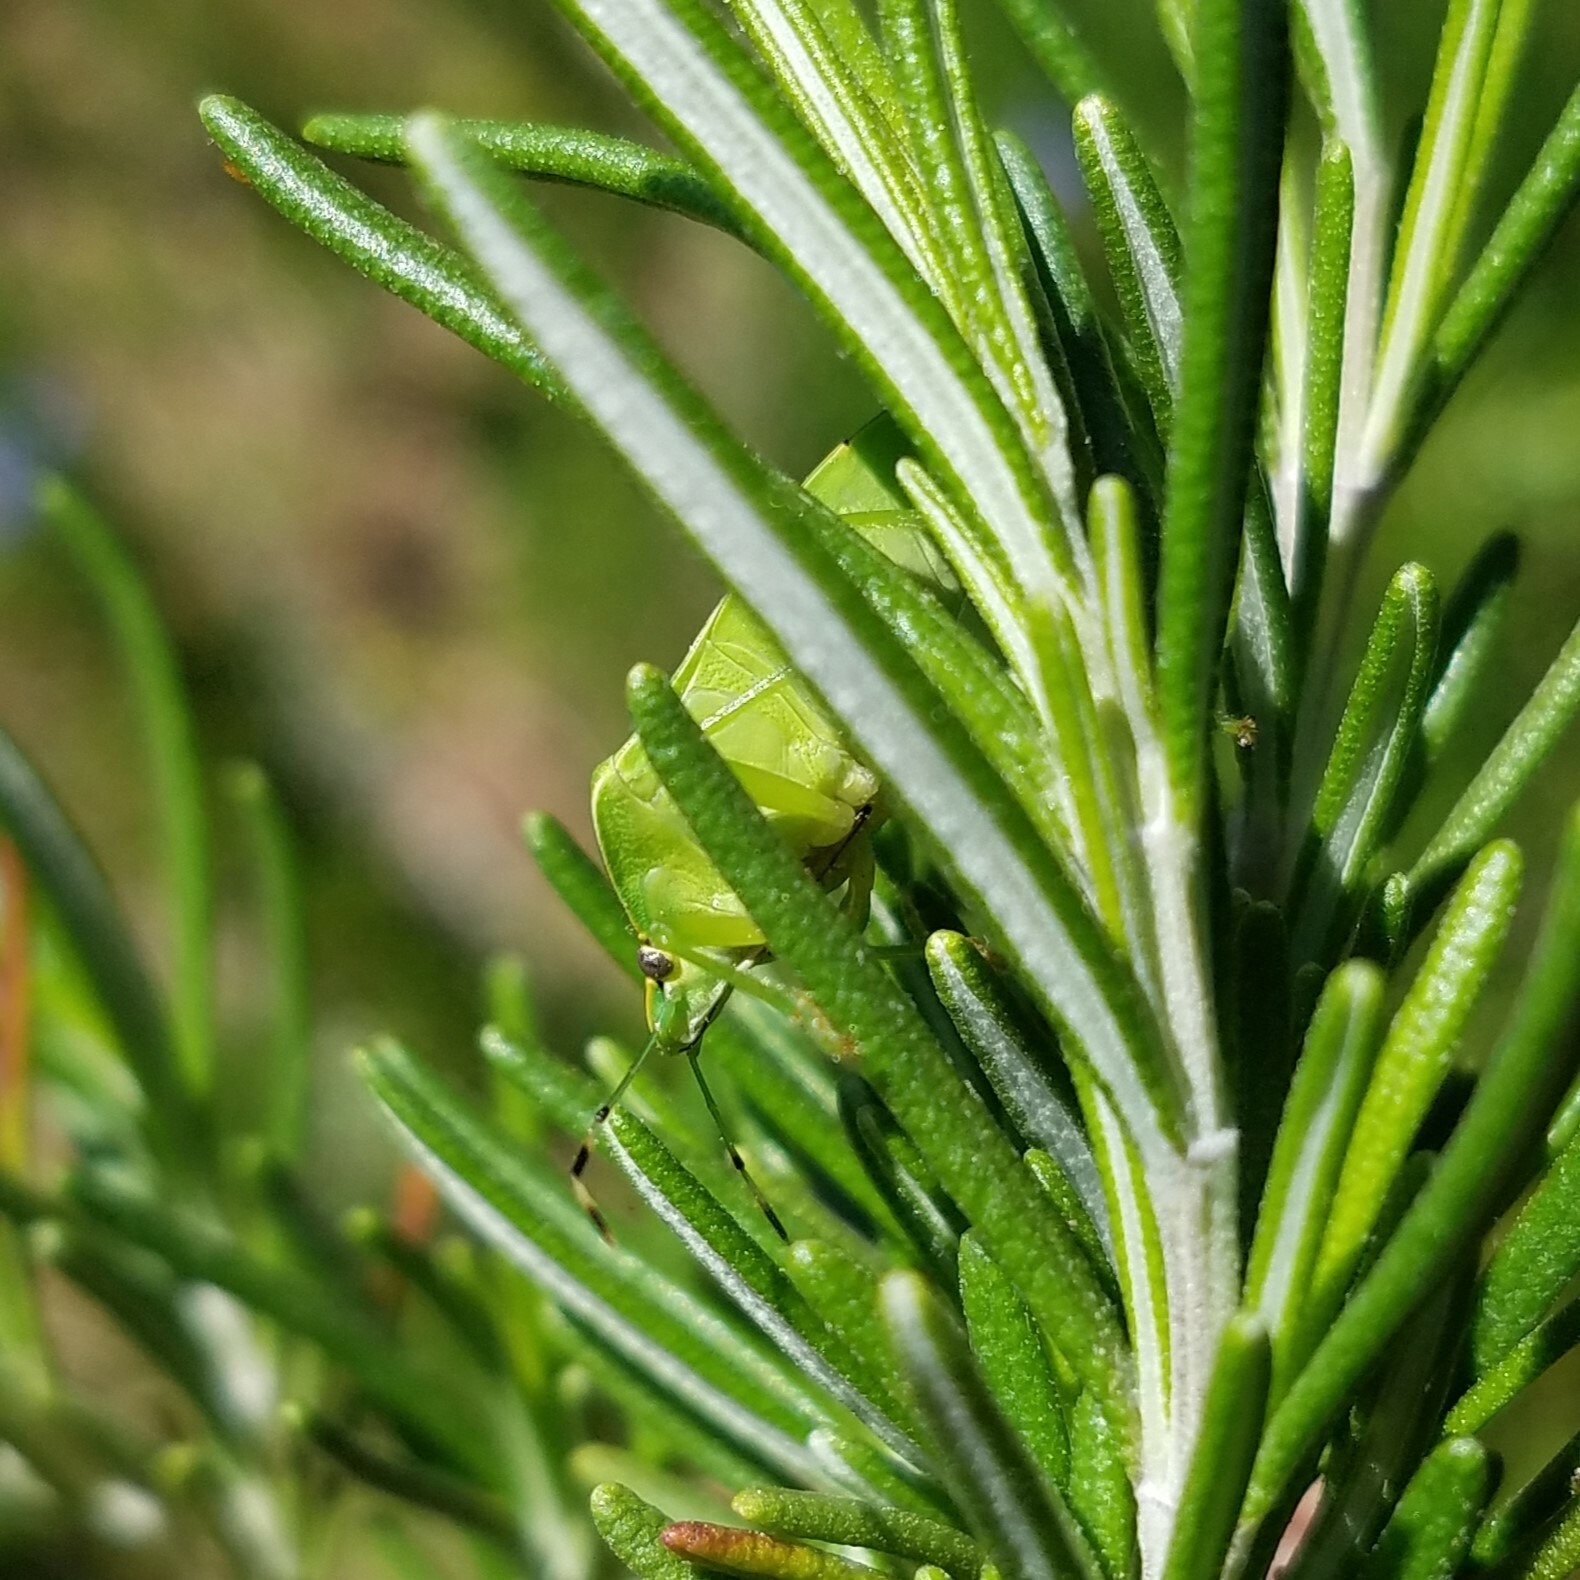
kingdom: Animalia
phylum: Arthropoda
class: Insecta
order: Hemiptera
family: Pentatomidae
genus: Chinavia
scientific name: Chinavia hilaris
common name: Green stink bug
